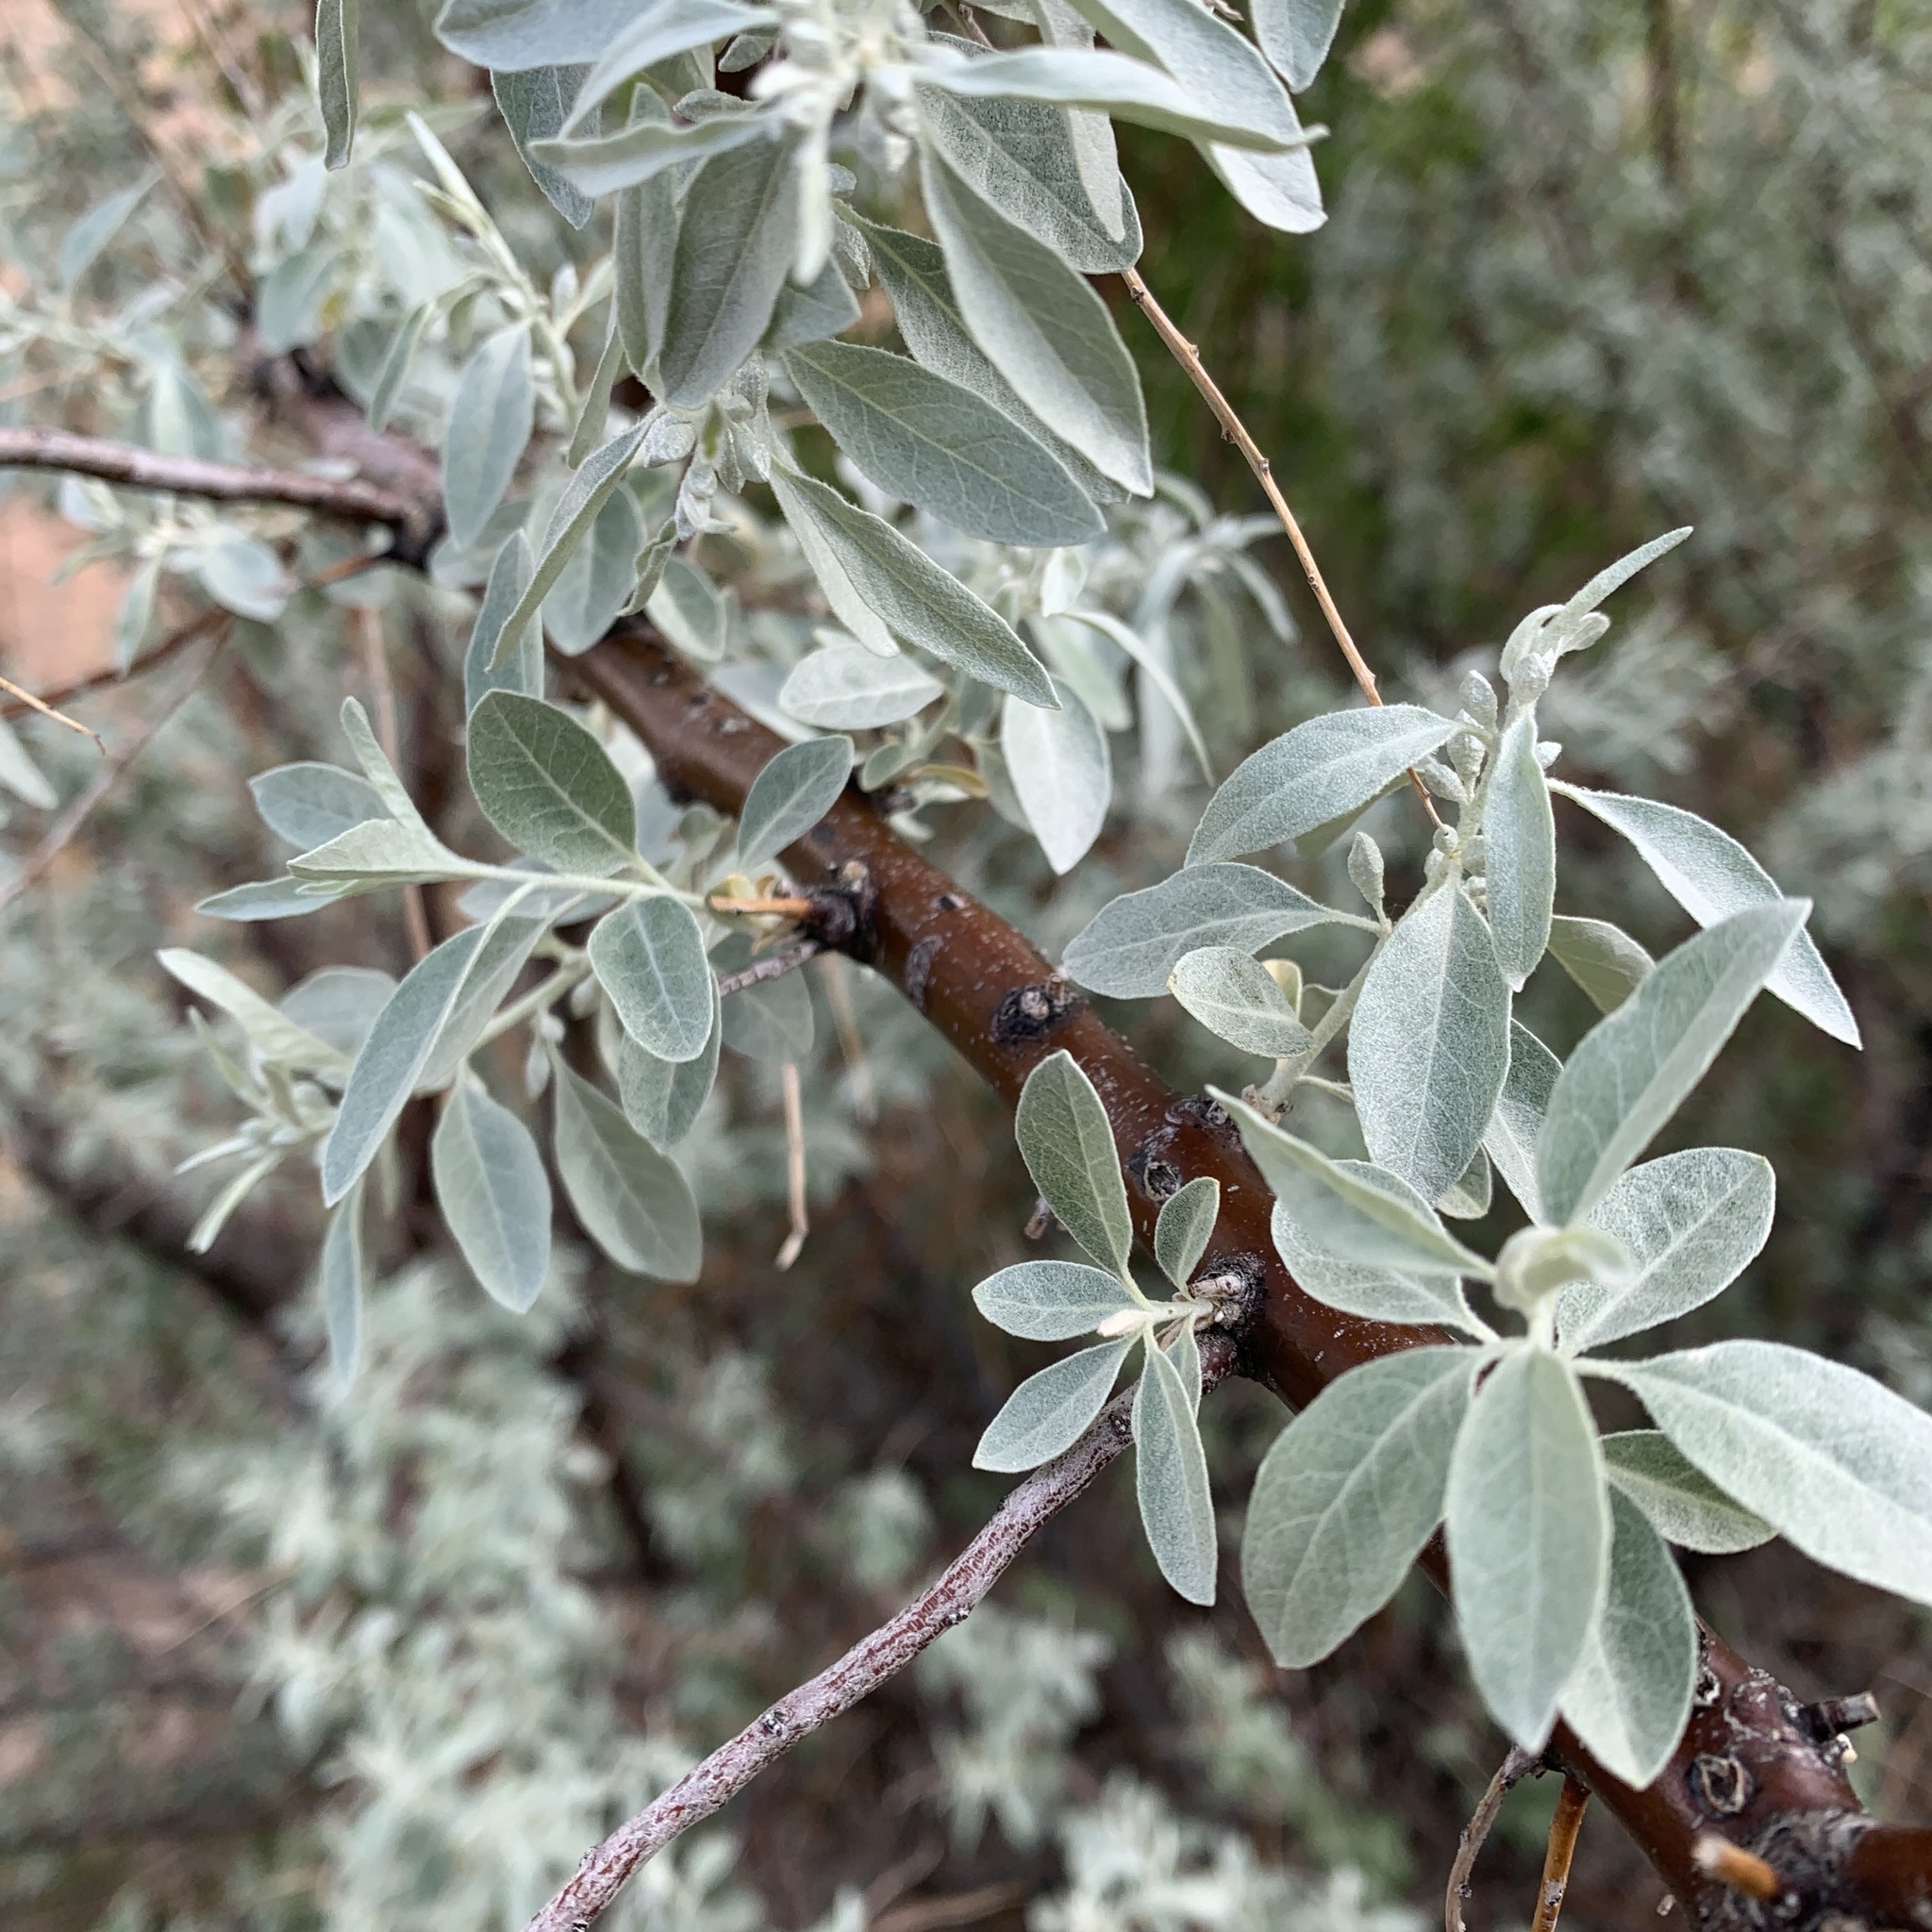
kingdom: Plantae
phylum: Tracheophyta
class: Magnoliopsida
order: Rosales
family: Elaeagnaceae
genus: Elaeagnus
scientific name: Elaeagnus angustifolia
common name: Russian olive
